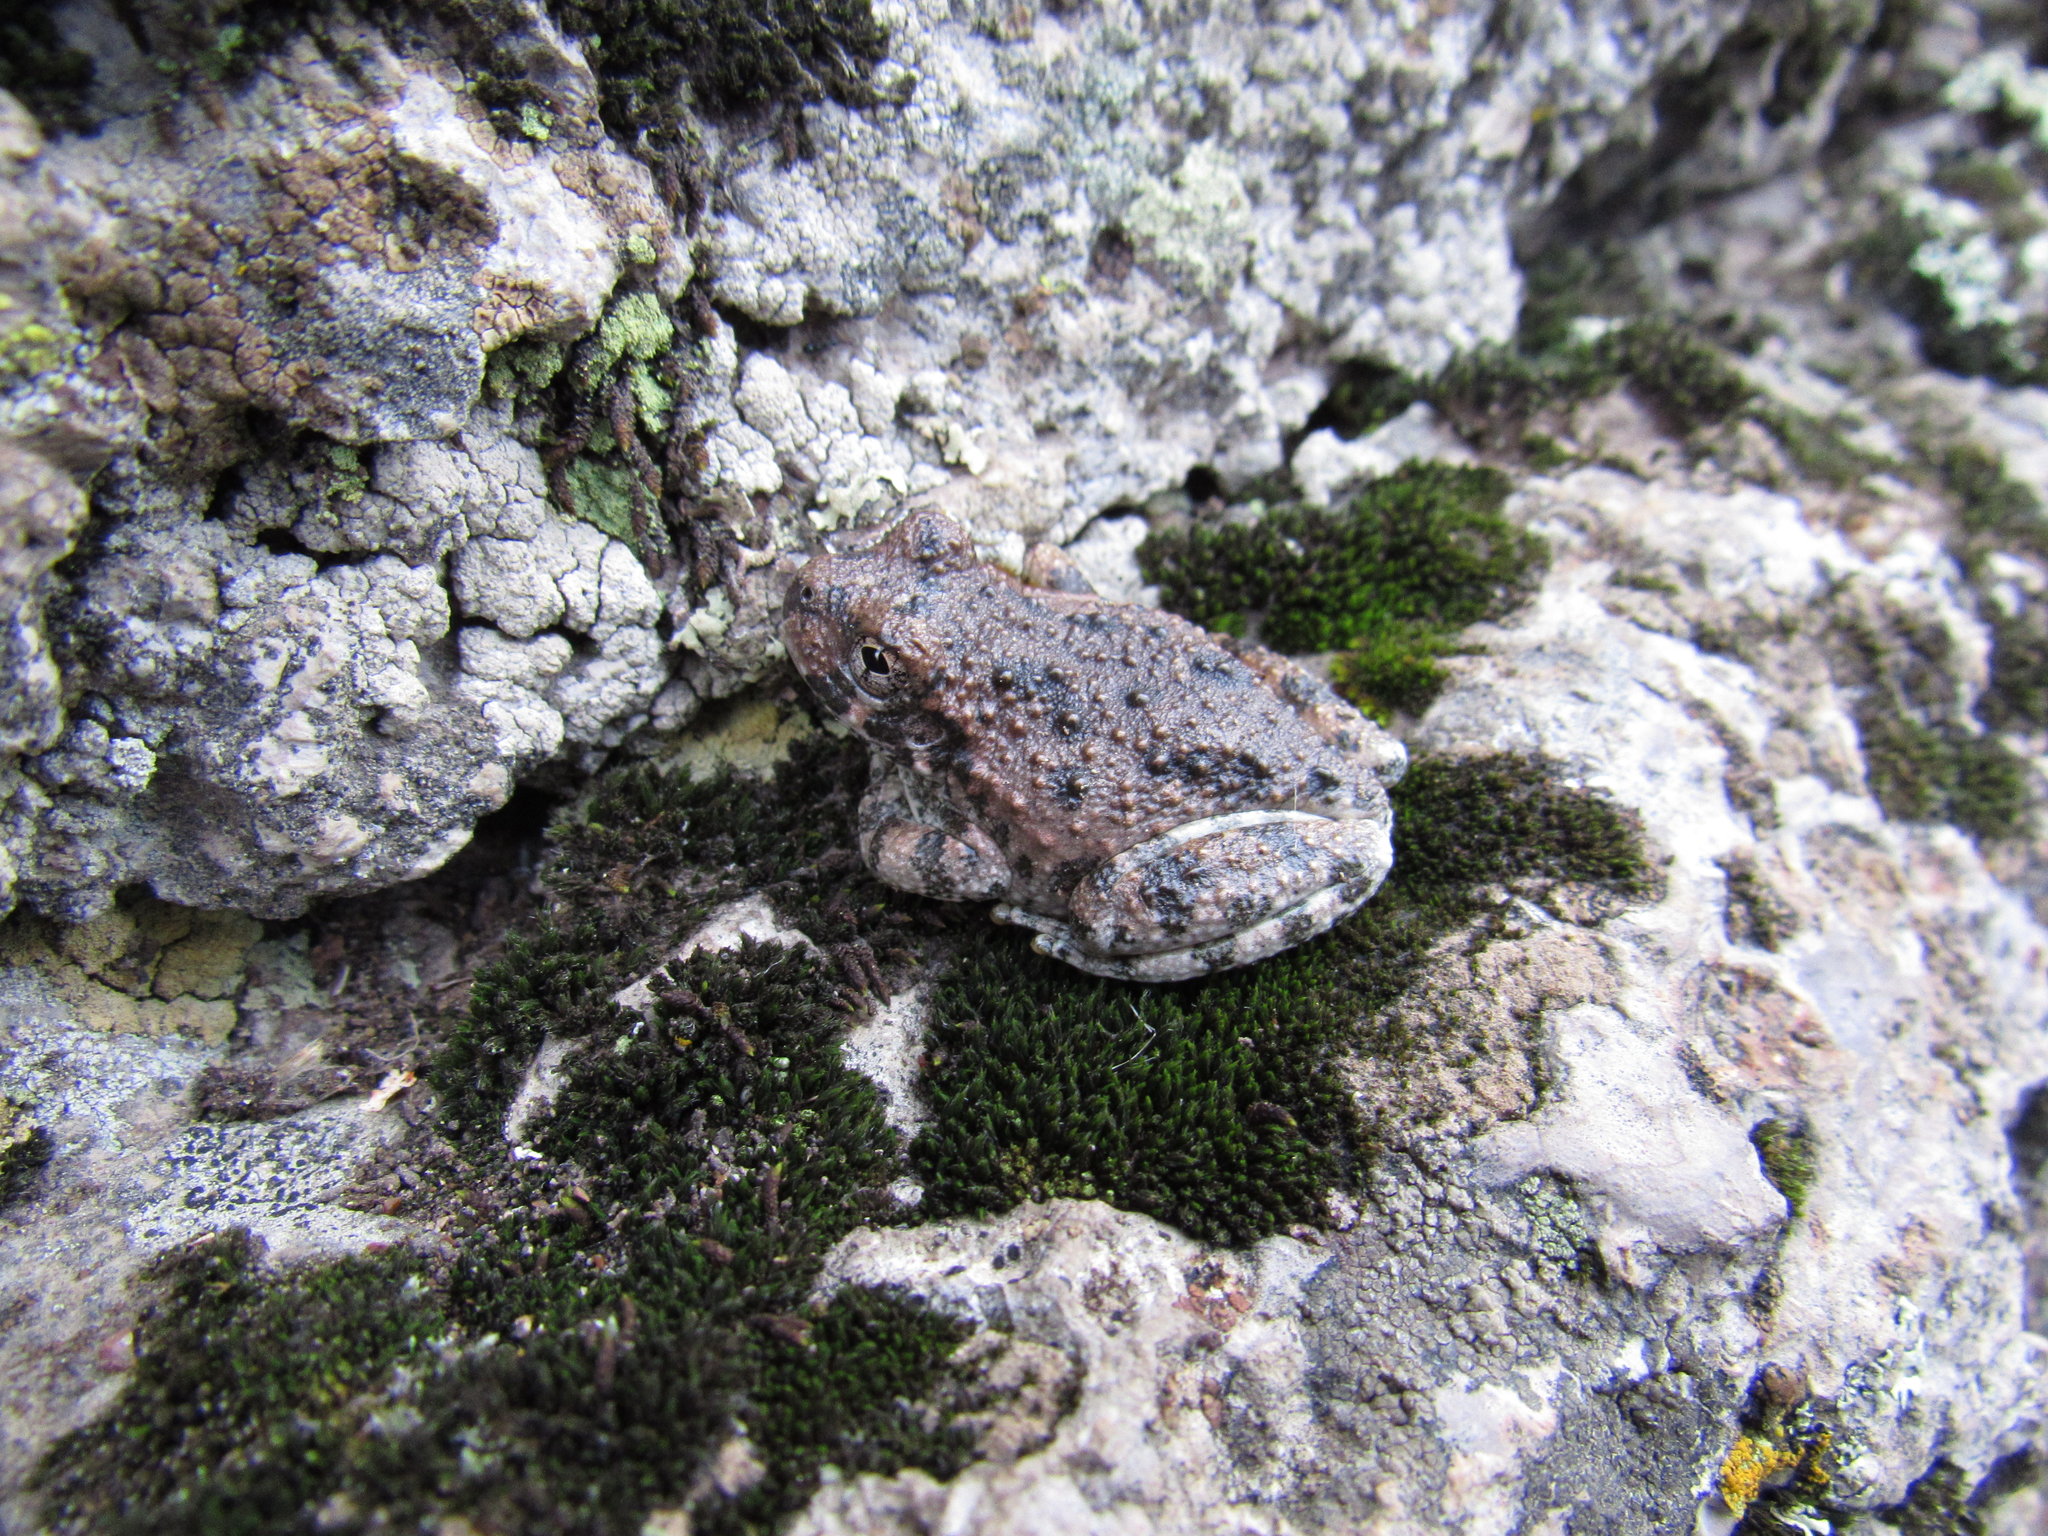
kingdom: Animalia
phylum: Chordata
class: Amphibia
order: Anura
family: Hylidae
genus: Dryophytes
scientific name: Dryophytes arenicolor
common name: Canyon treefrog
